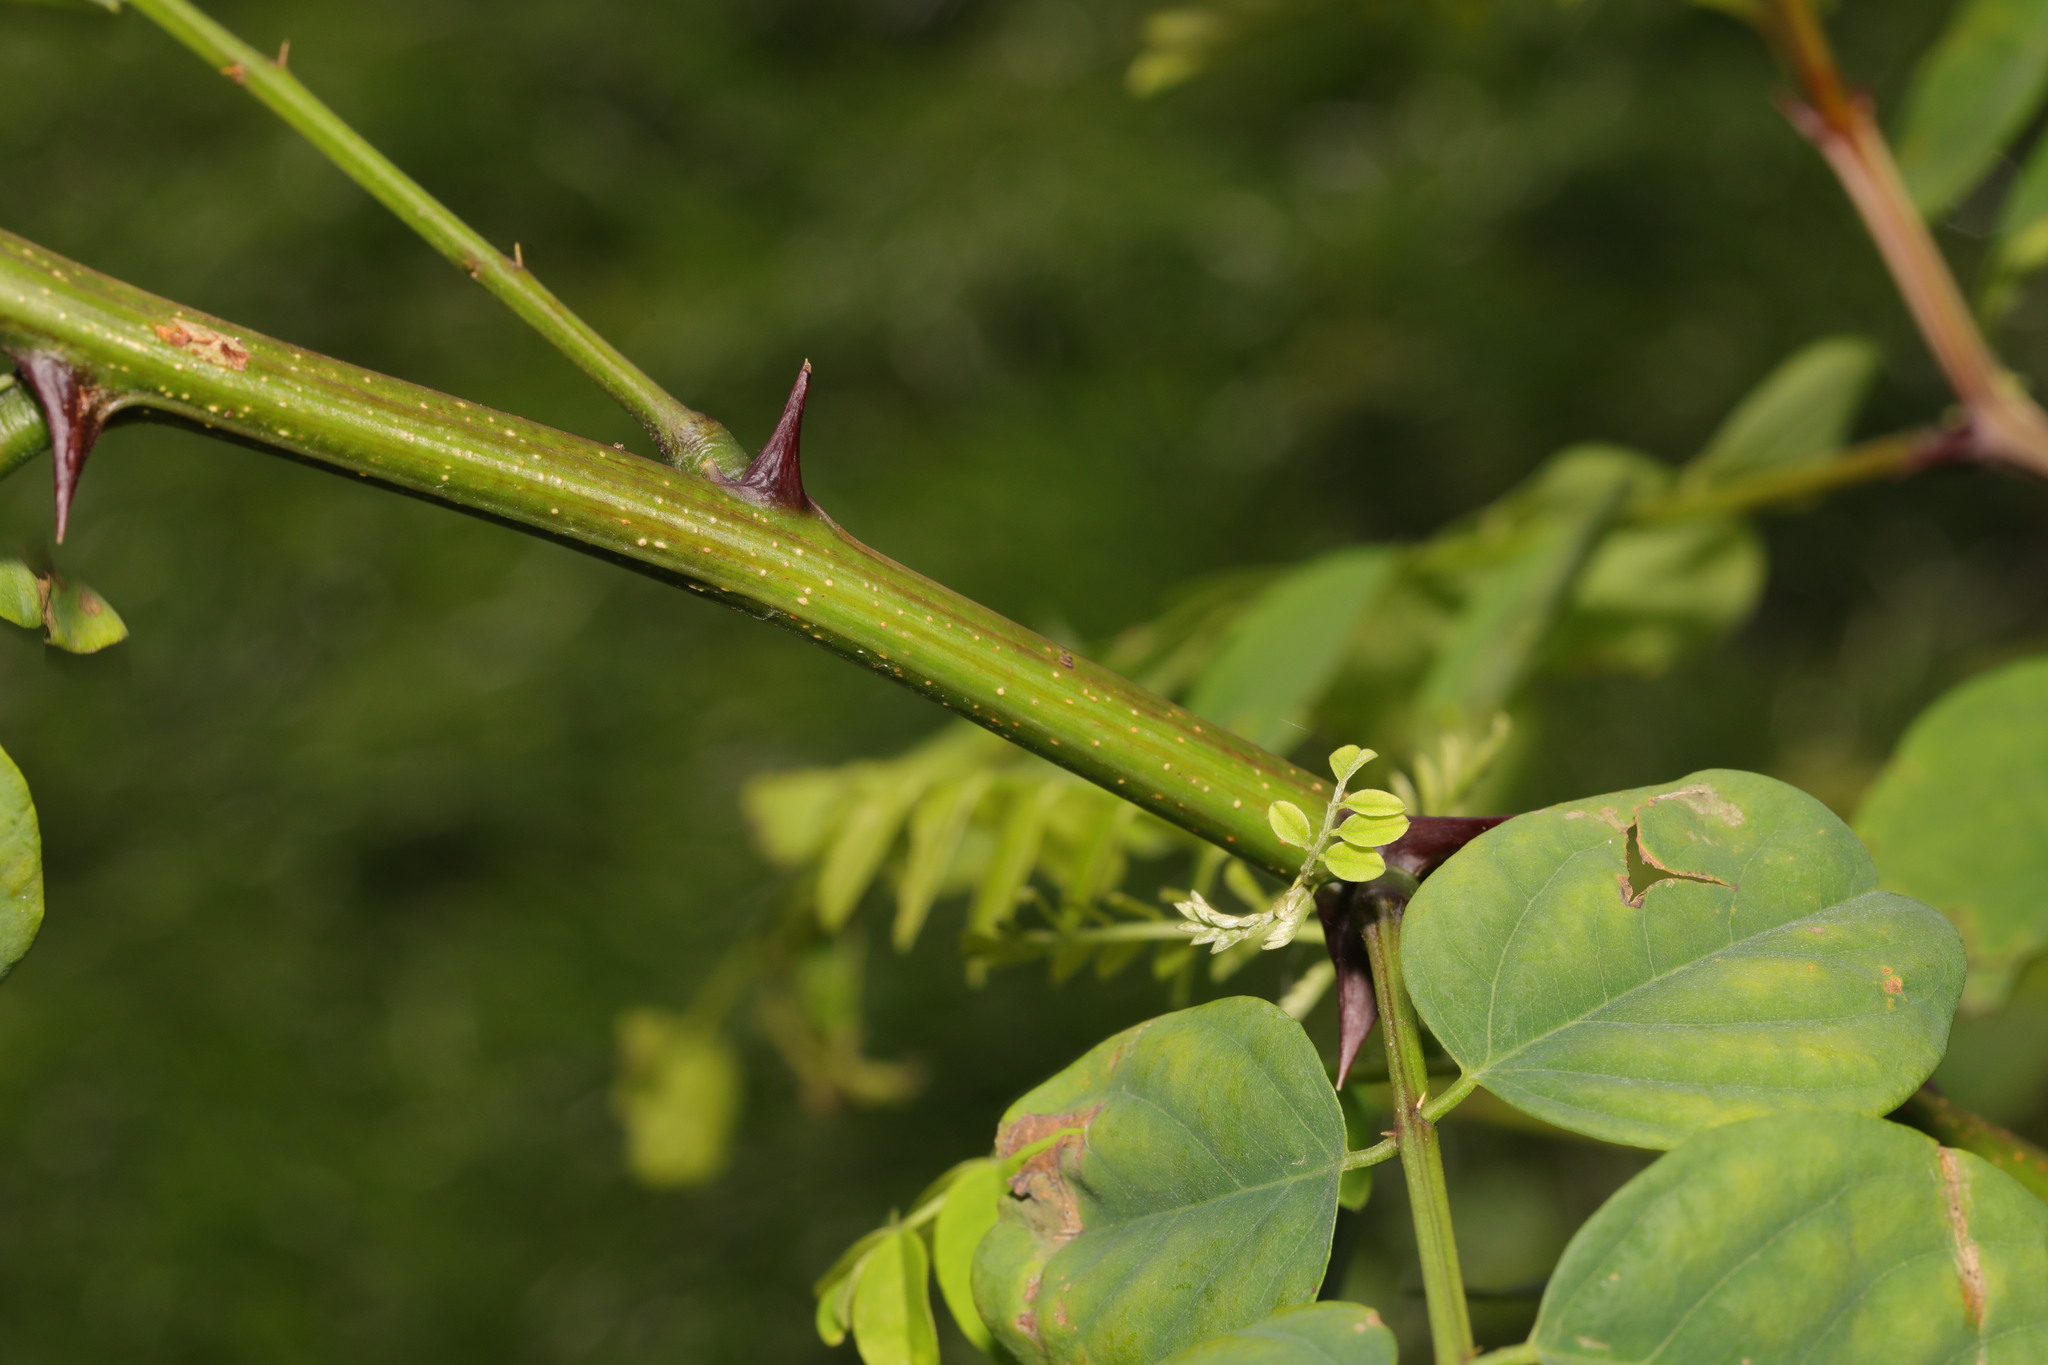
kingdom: Plantae
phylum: Tracheophyta
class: Magnoliopsida
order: Fabales
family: Fabaceae
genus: Robinia
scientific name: Robinia pseudoacacia
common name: Black locust
